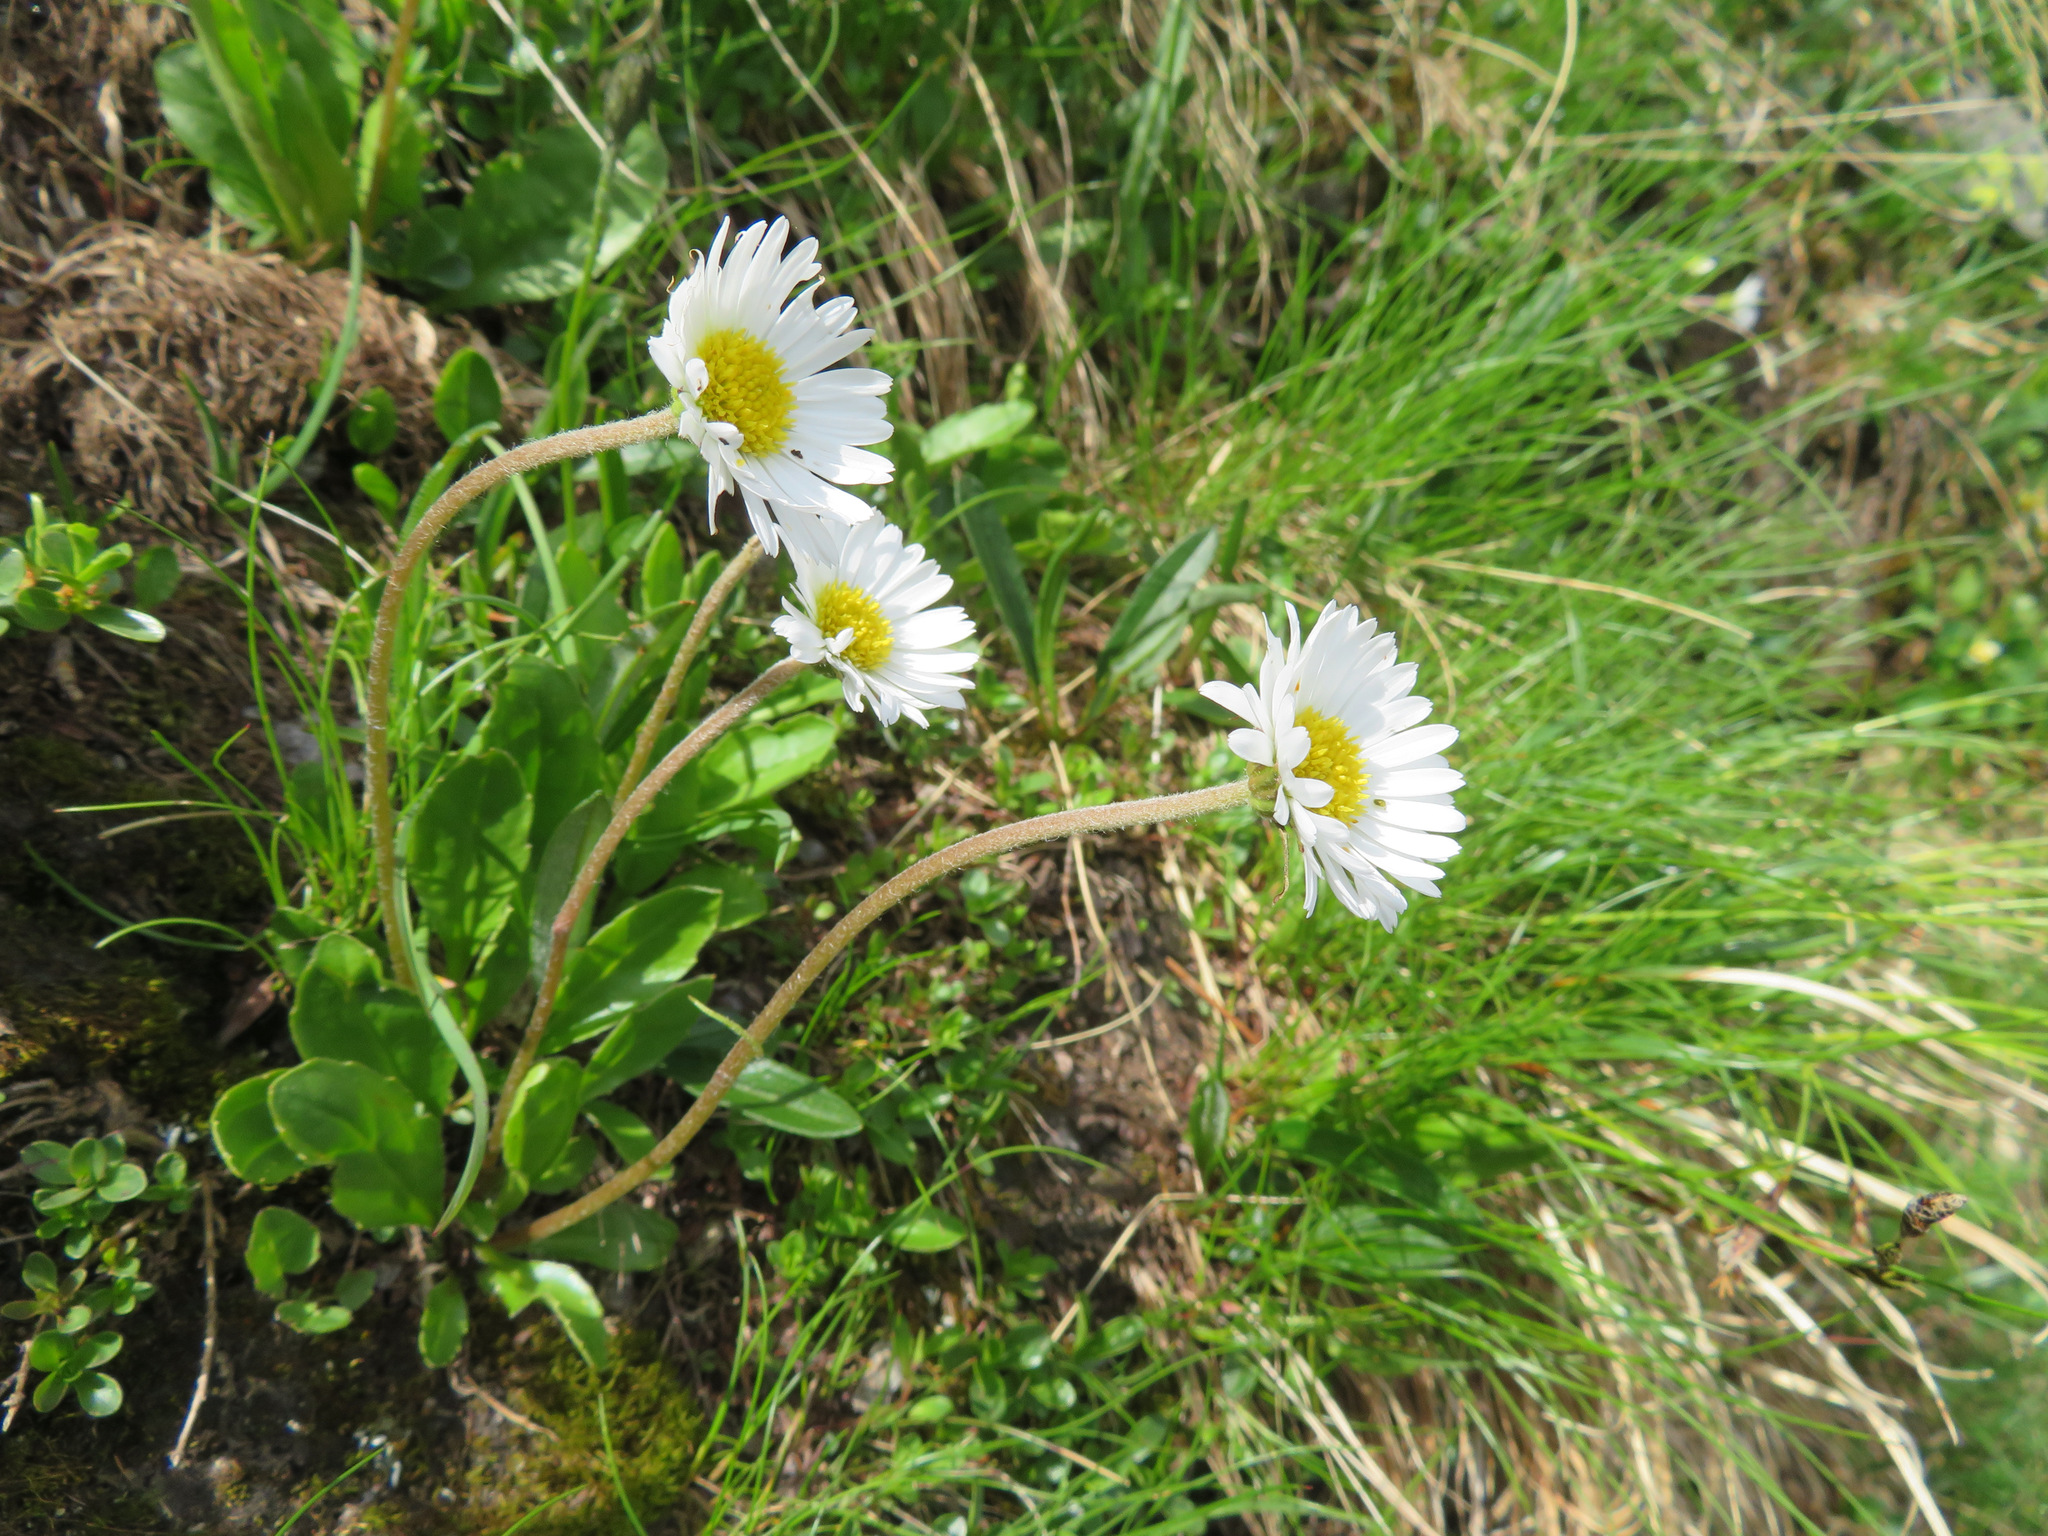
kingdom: Plantae
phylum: Tracheophyta
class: Magnoliopsida
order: Asterales
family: Asteraceae
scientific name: Asteraceae
